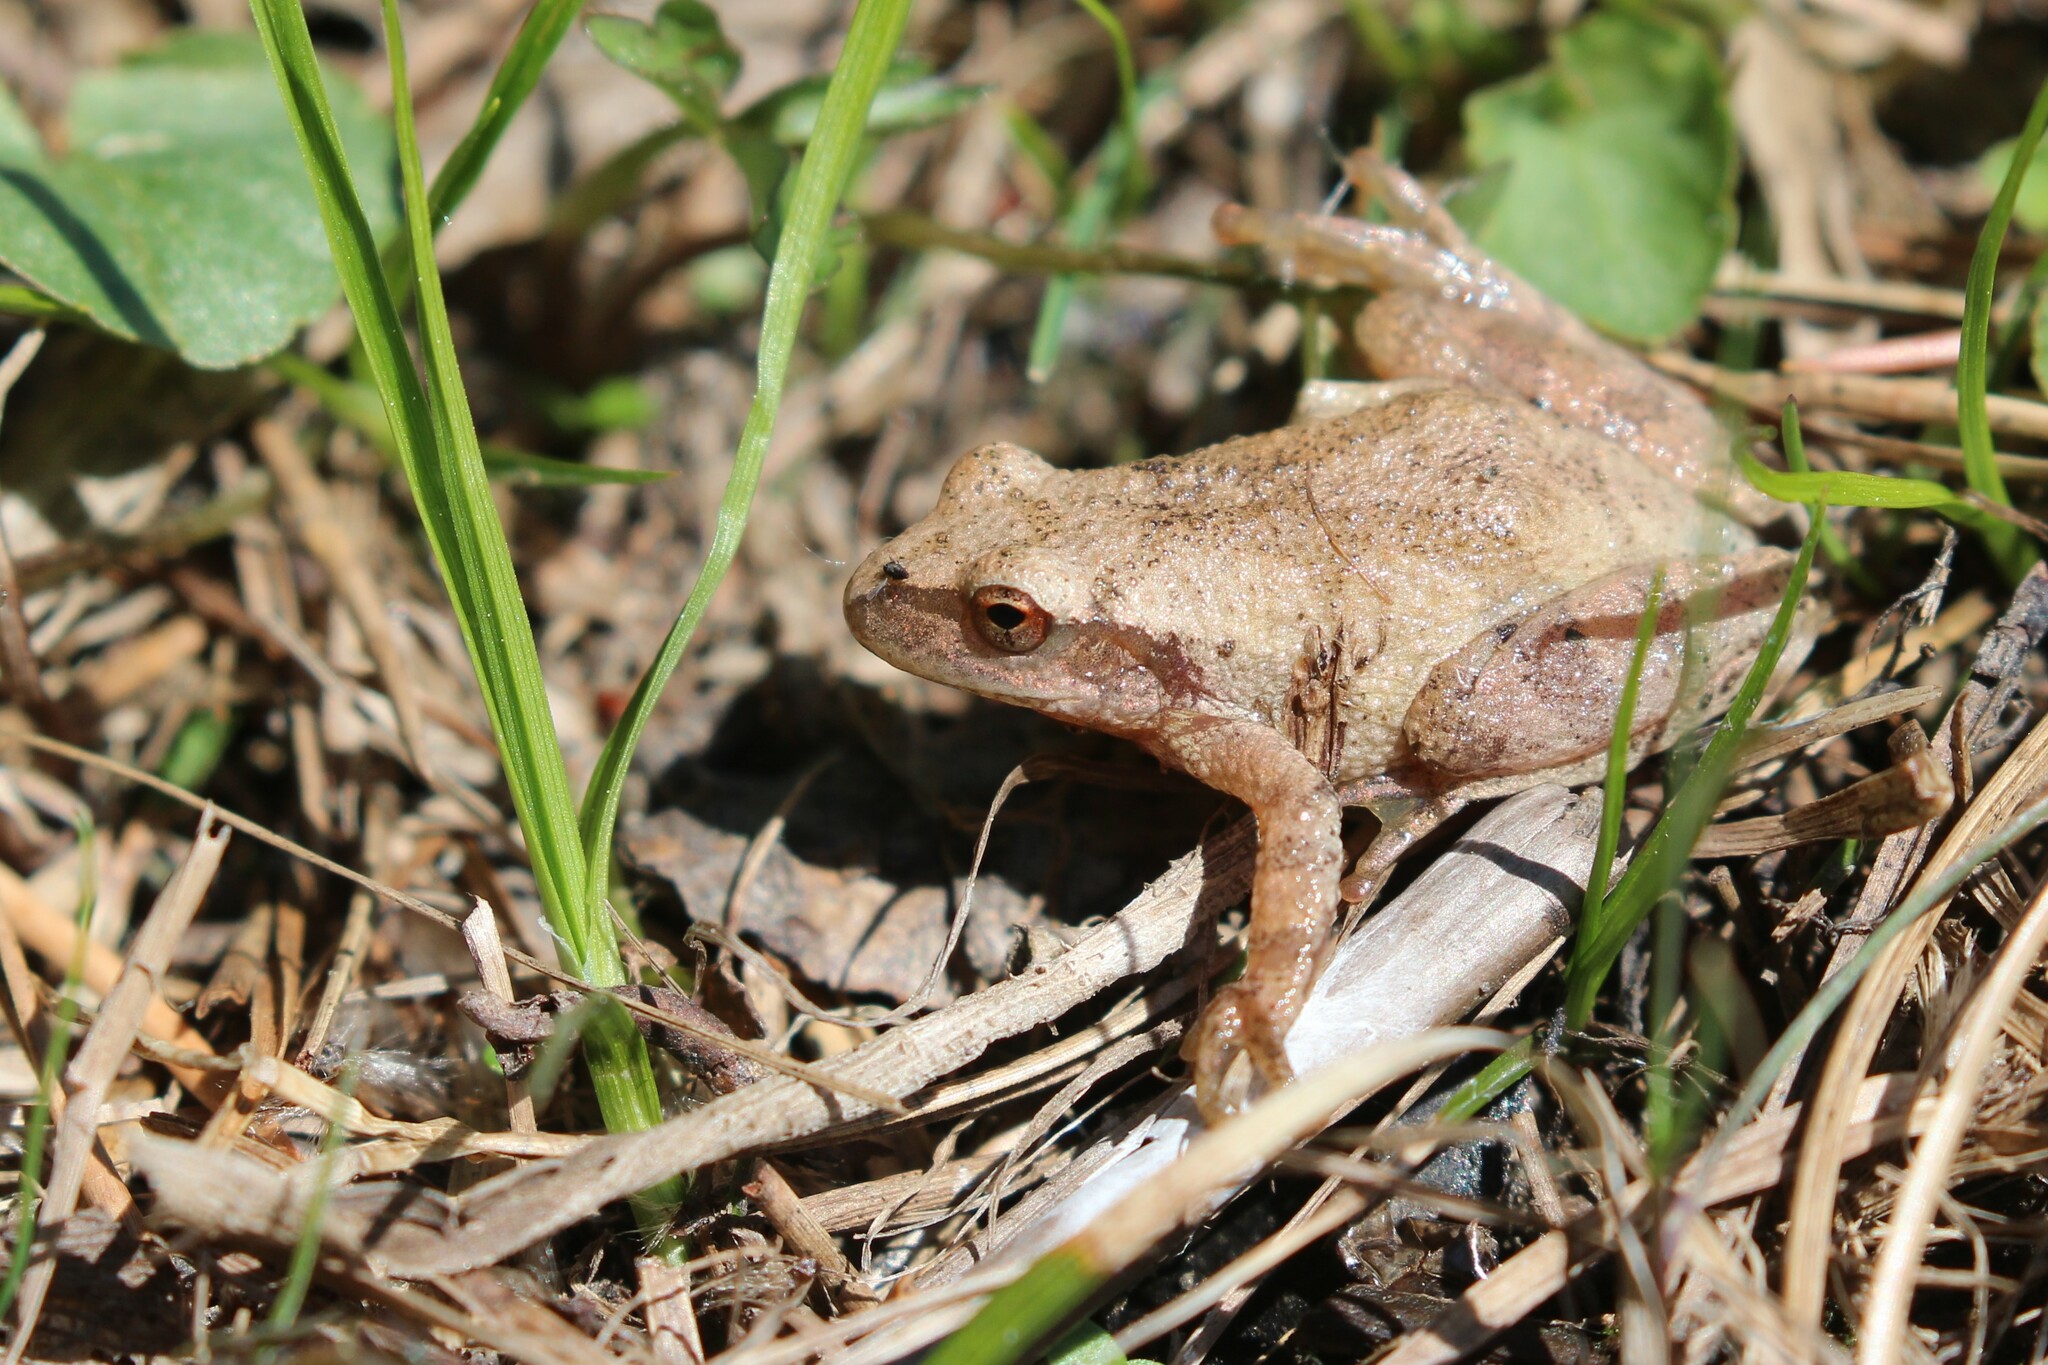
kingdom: Animalia
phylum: Chordata
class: Amphibia
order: Anura
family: Hylidae
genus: Pseudacris
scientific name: Pseudacris crucifer
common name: Spring peeper
